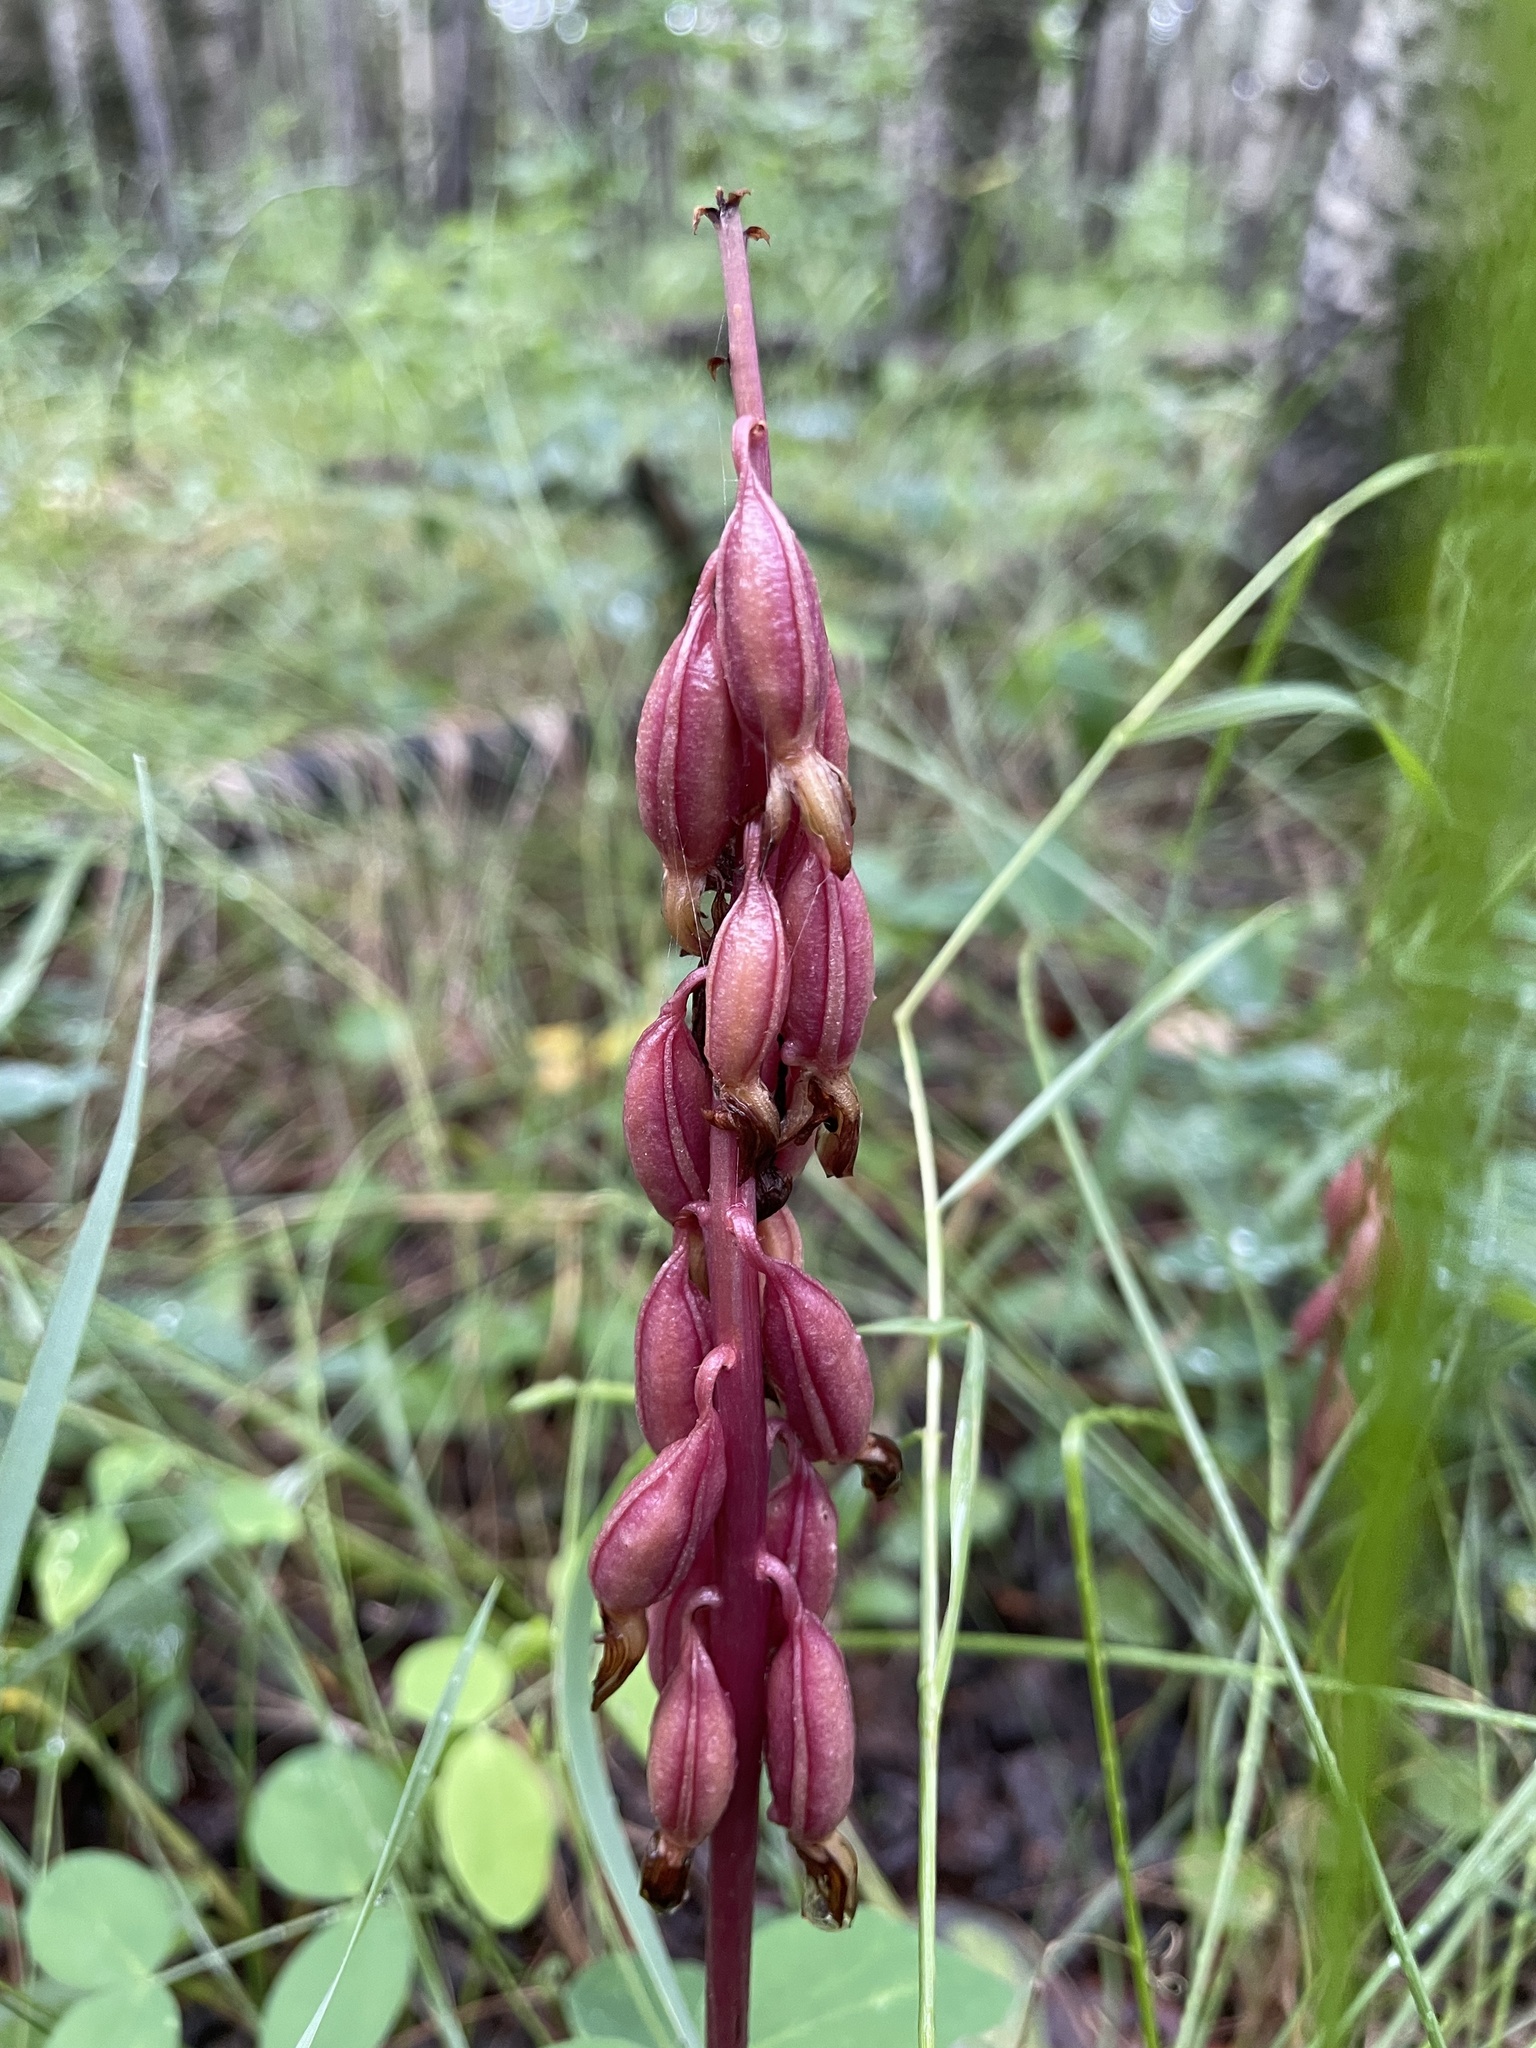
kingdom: Plantae
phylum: Tracheophyta
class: Liliopsida
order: Asparagales
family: Orchidaceae
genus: Corallorhiza
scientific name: Corallorhiza maculata
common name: Spotted coralroot
